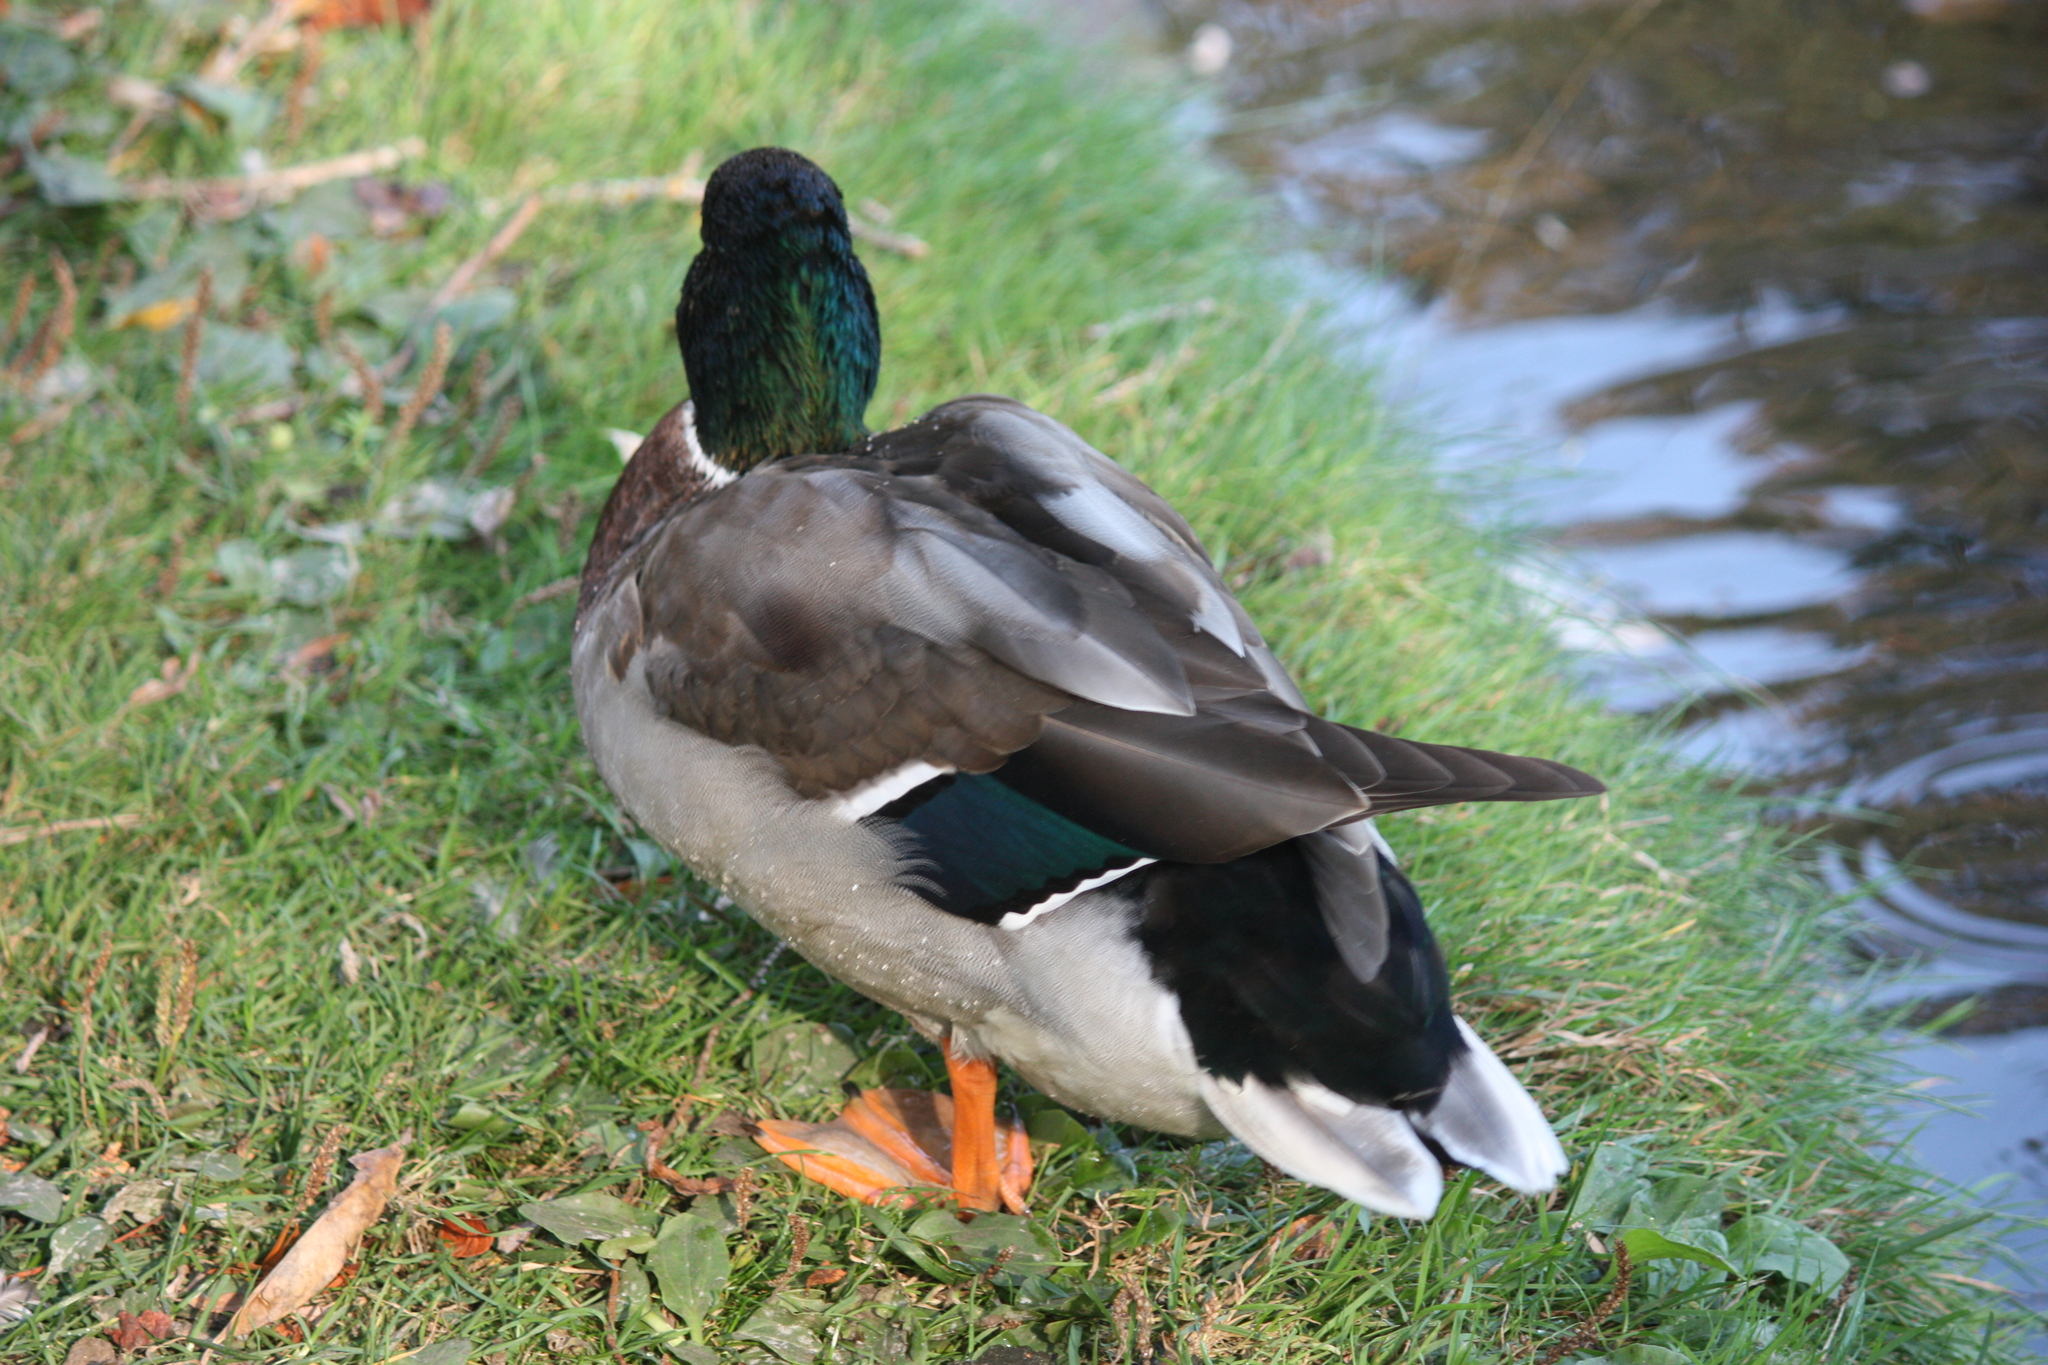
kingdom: Animalia
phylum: Chordata
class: Aves
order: Anseriformes
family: Anatidae
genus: Anas
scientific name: Anas platyrhynchos
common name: Mallard
